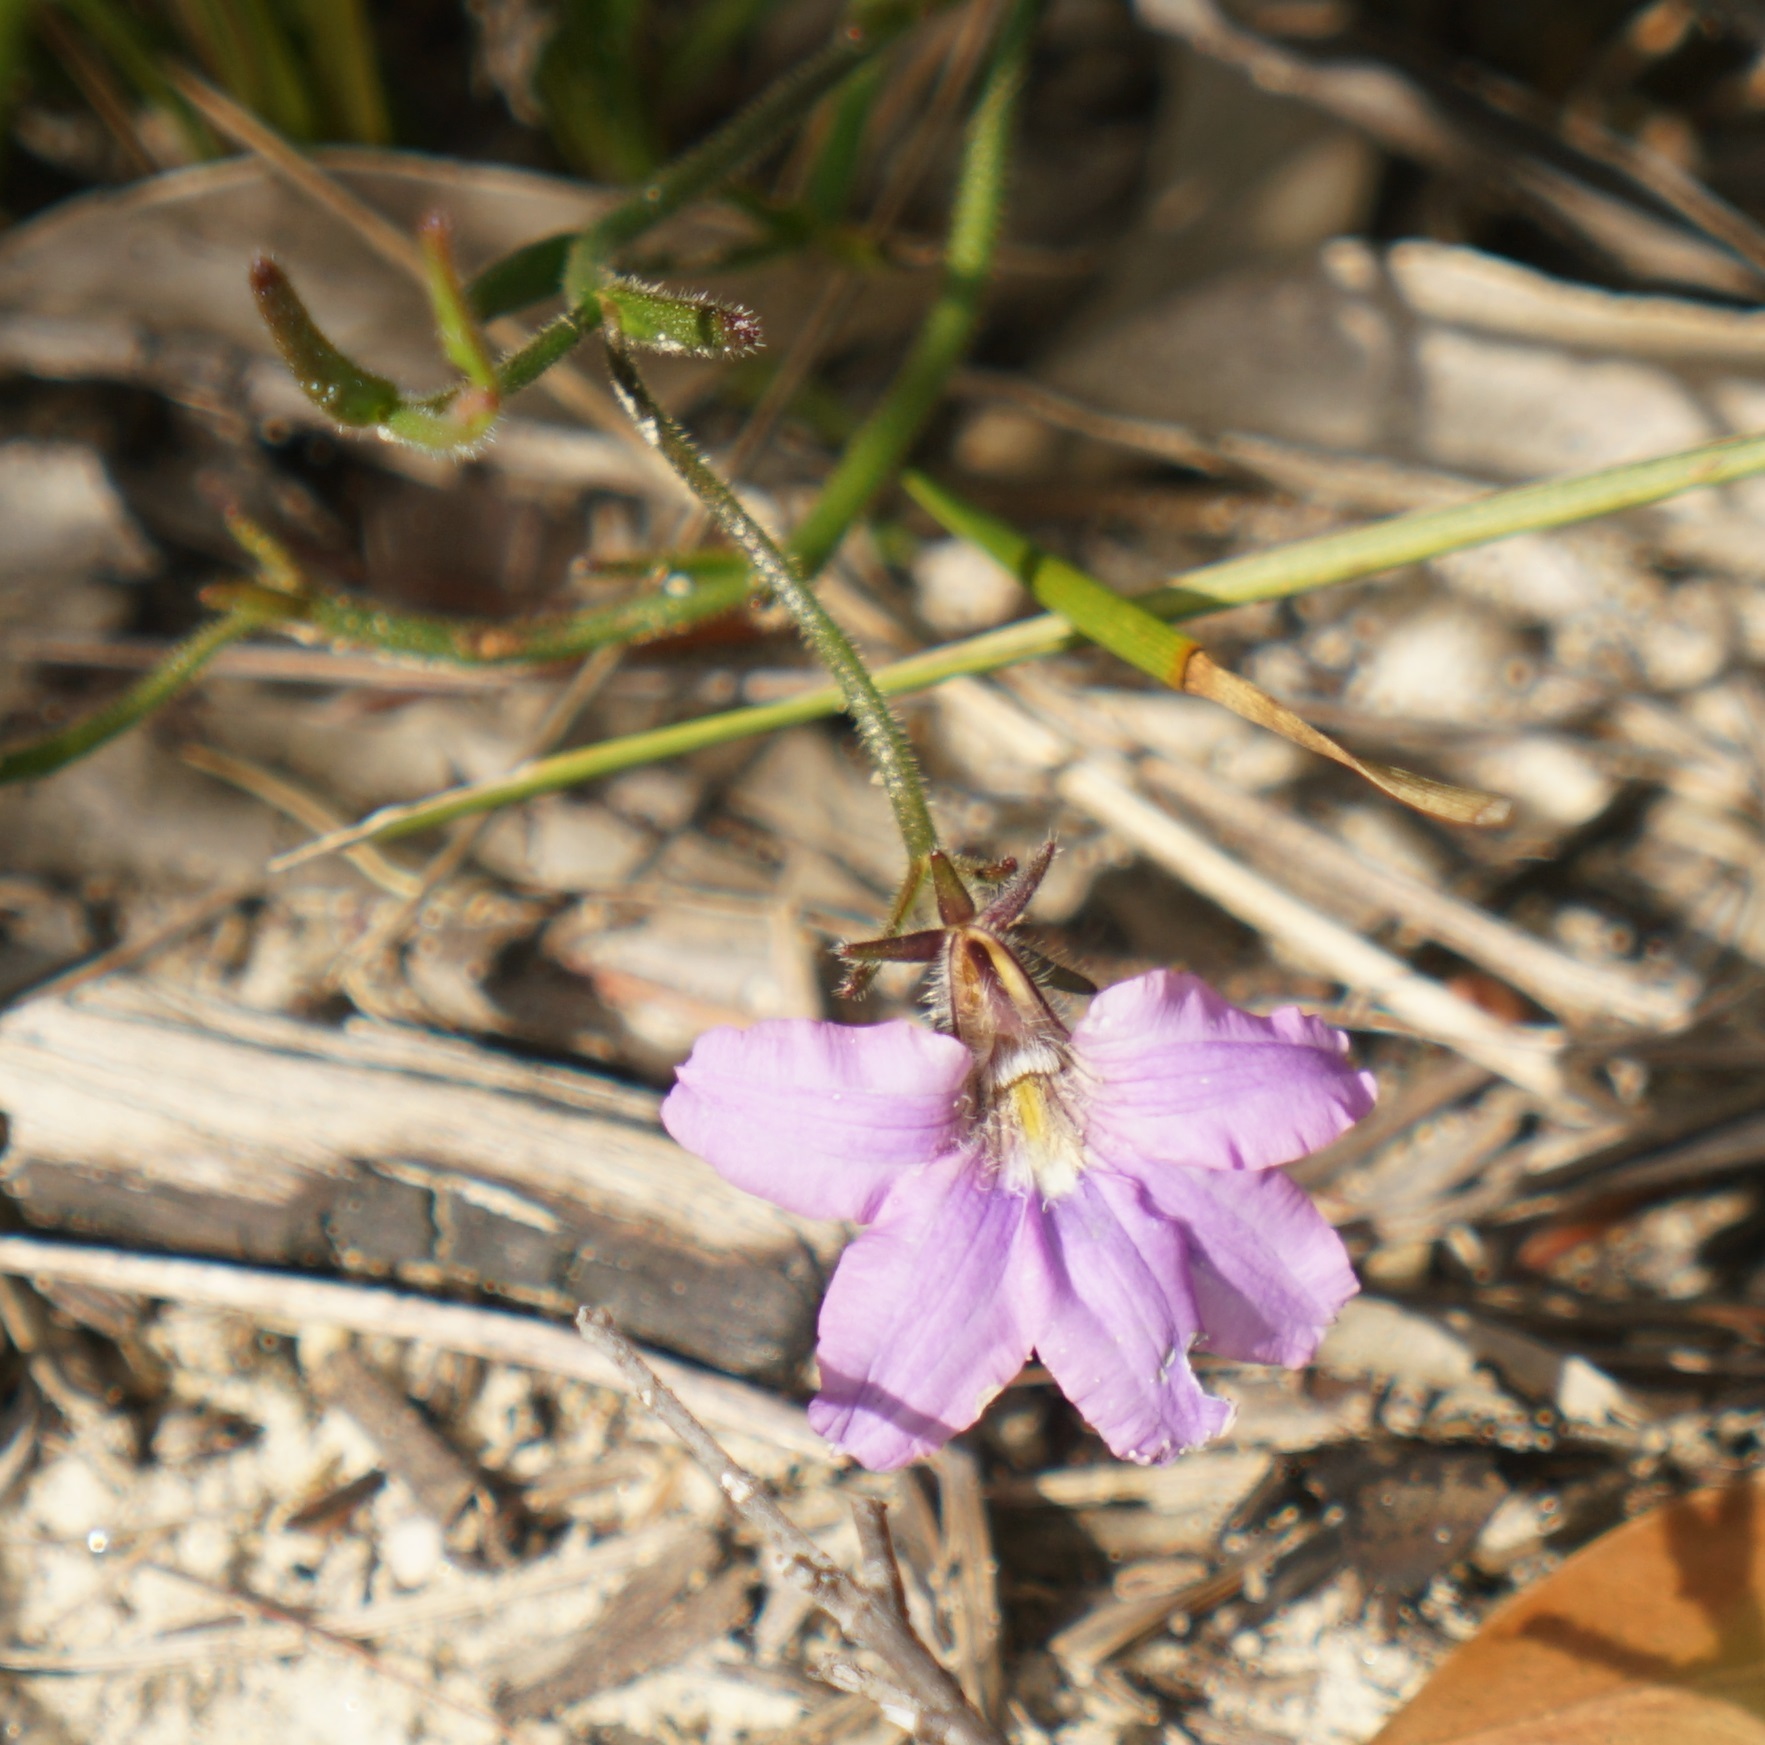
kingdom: Plantae
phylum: Tracheophyta
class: Magnoliopsida
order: Asterales
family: Goodeniaceae
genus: Scaevola
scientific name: Scaevola ramosissima
